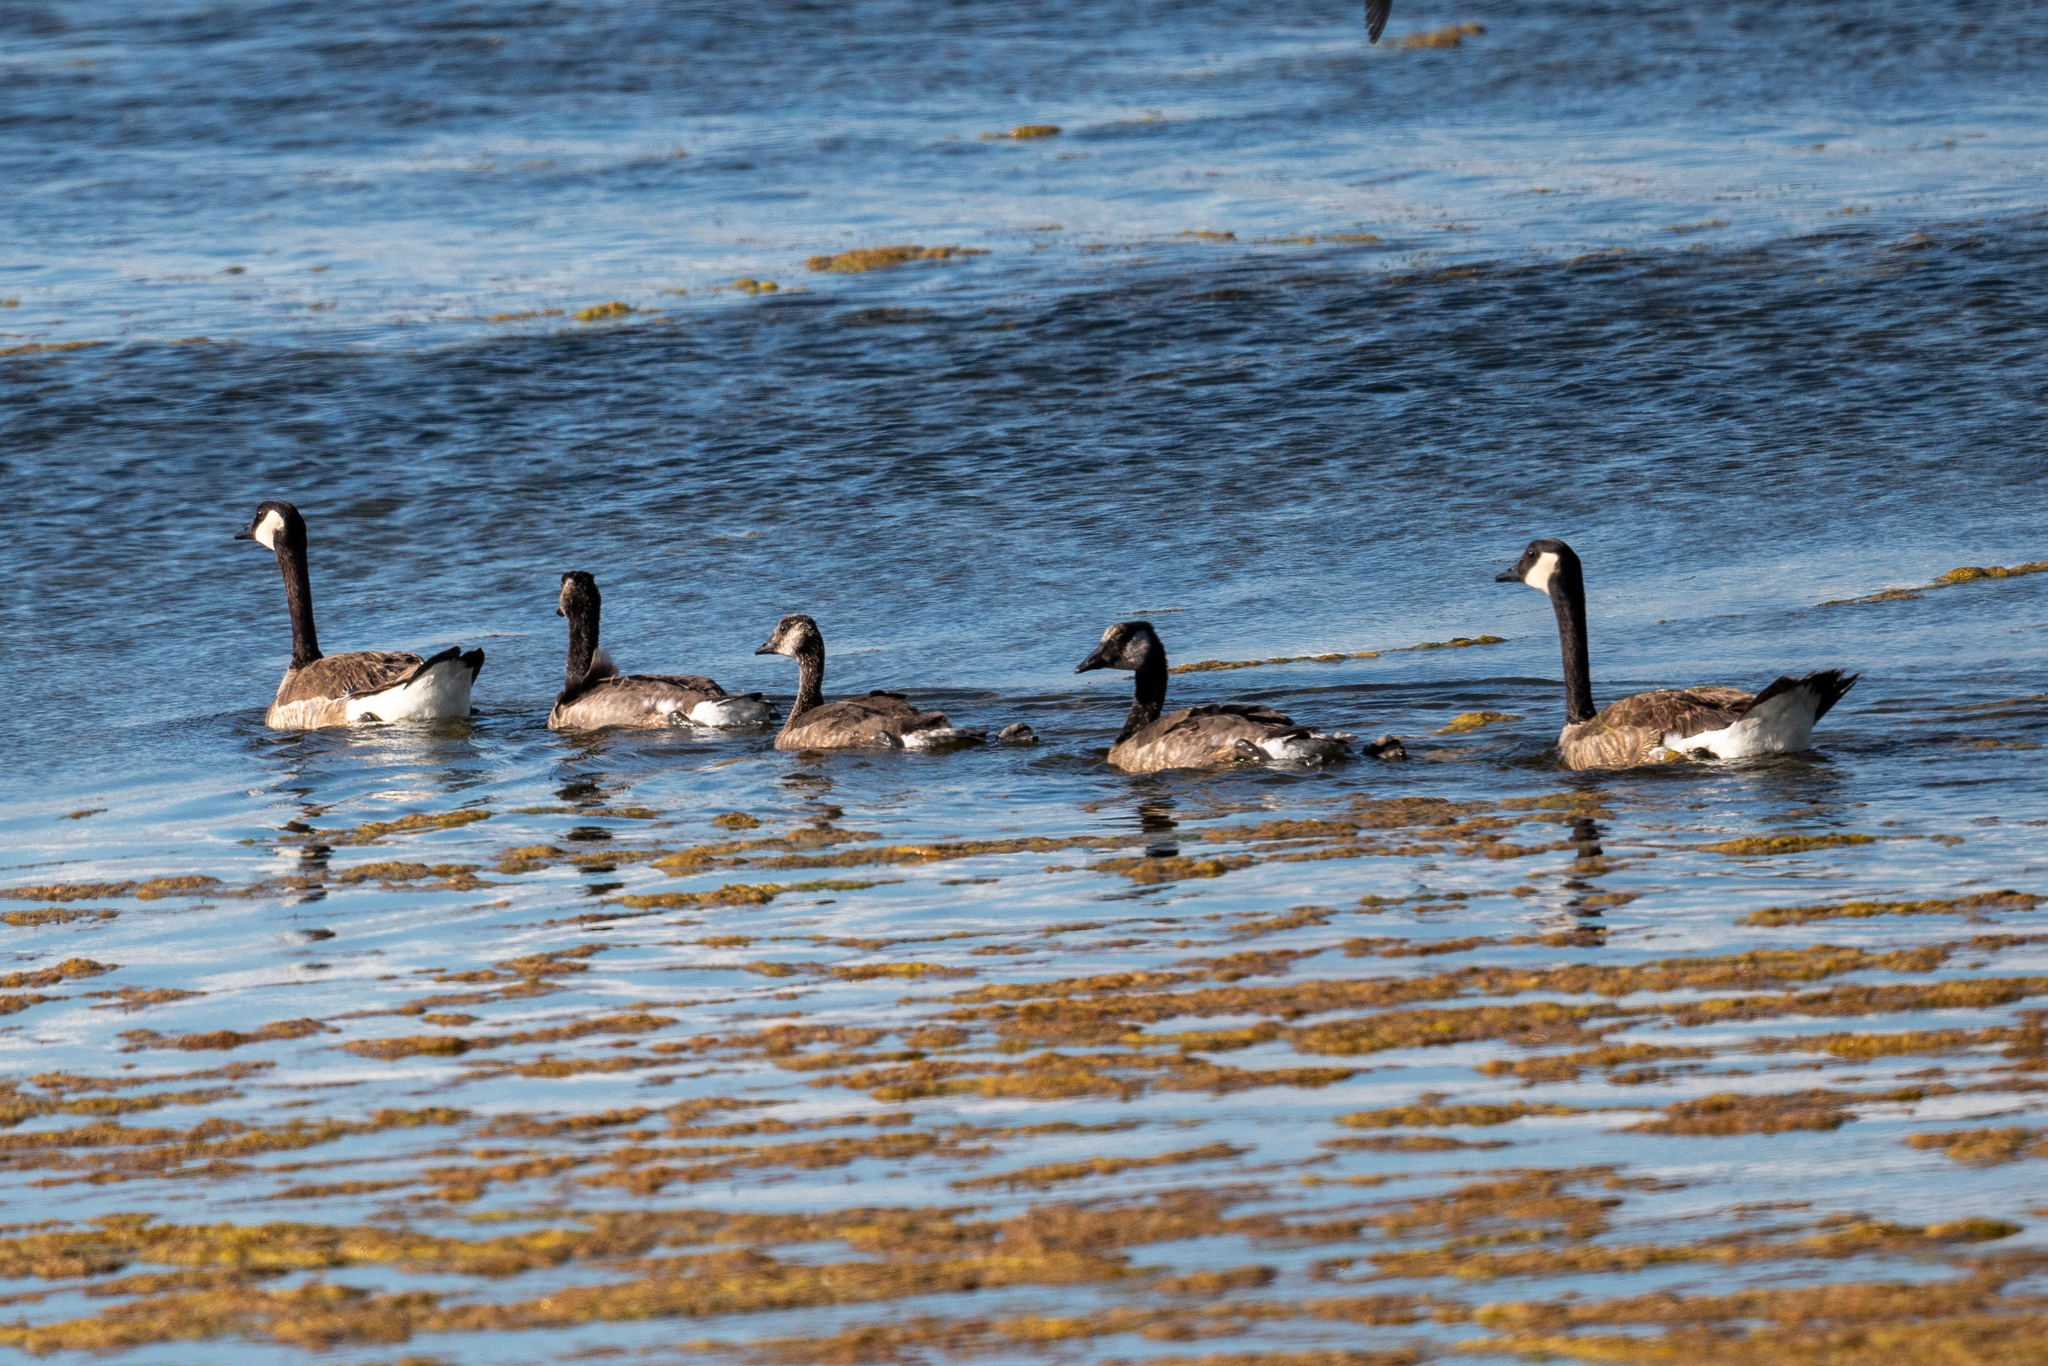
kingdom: Animalia
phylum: Chordata
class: Aves
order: Anseriformes
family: Anatidae
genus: Branta
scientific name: Branta canadensis
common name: Canada goose
